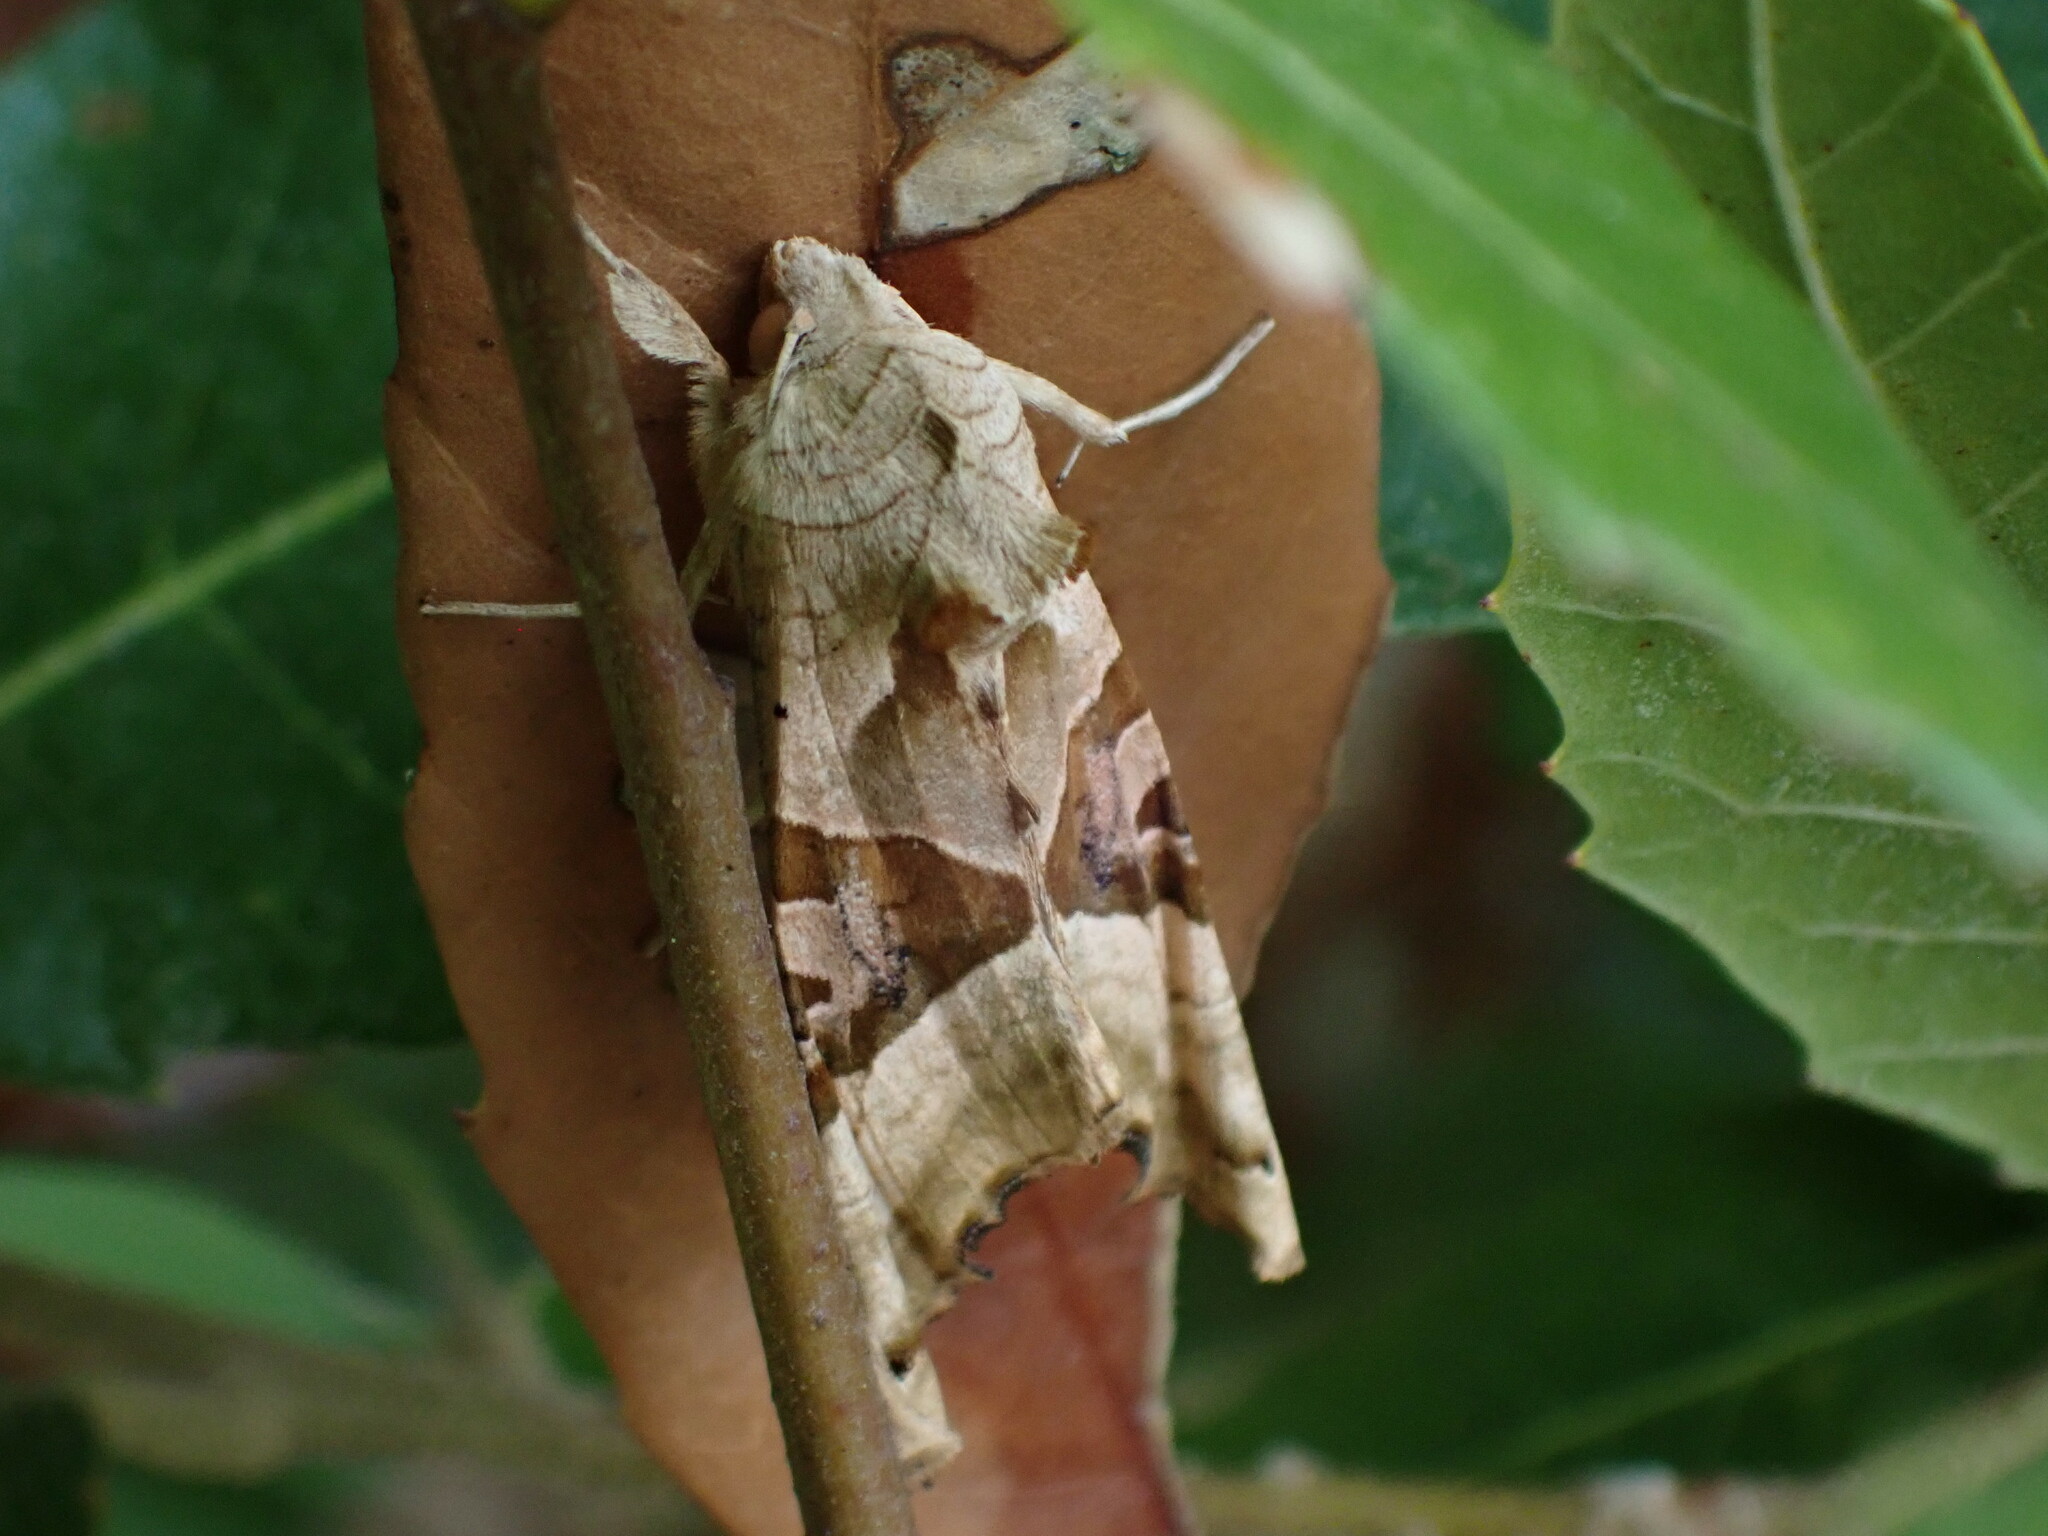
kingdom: Animalia
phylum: Arthropoda
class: Insecta
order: Lepidoptera
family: Noctuidae
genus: Phlogophora
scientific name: Phlogophora meticulosa
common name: Angle shades
